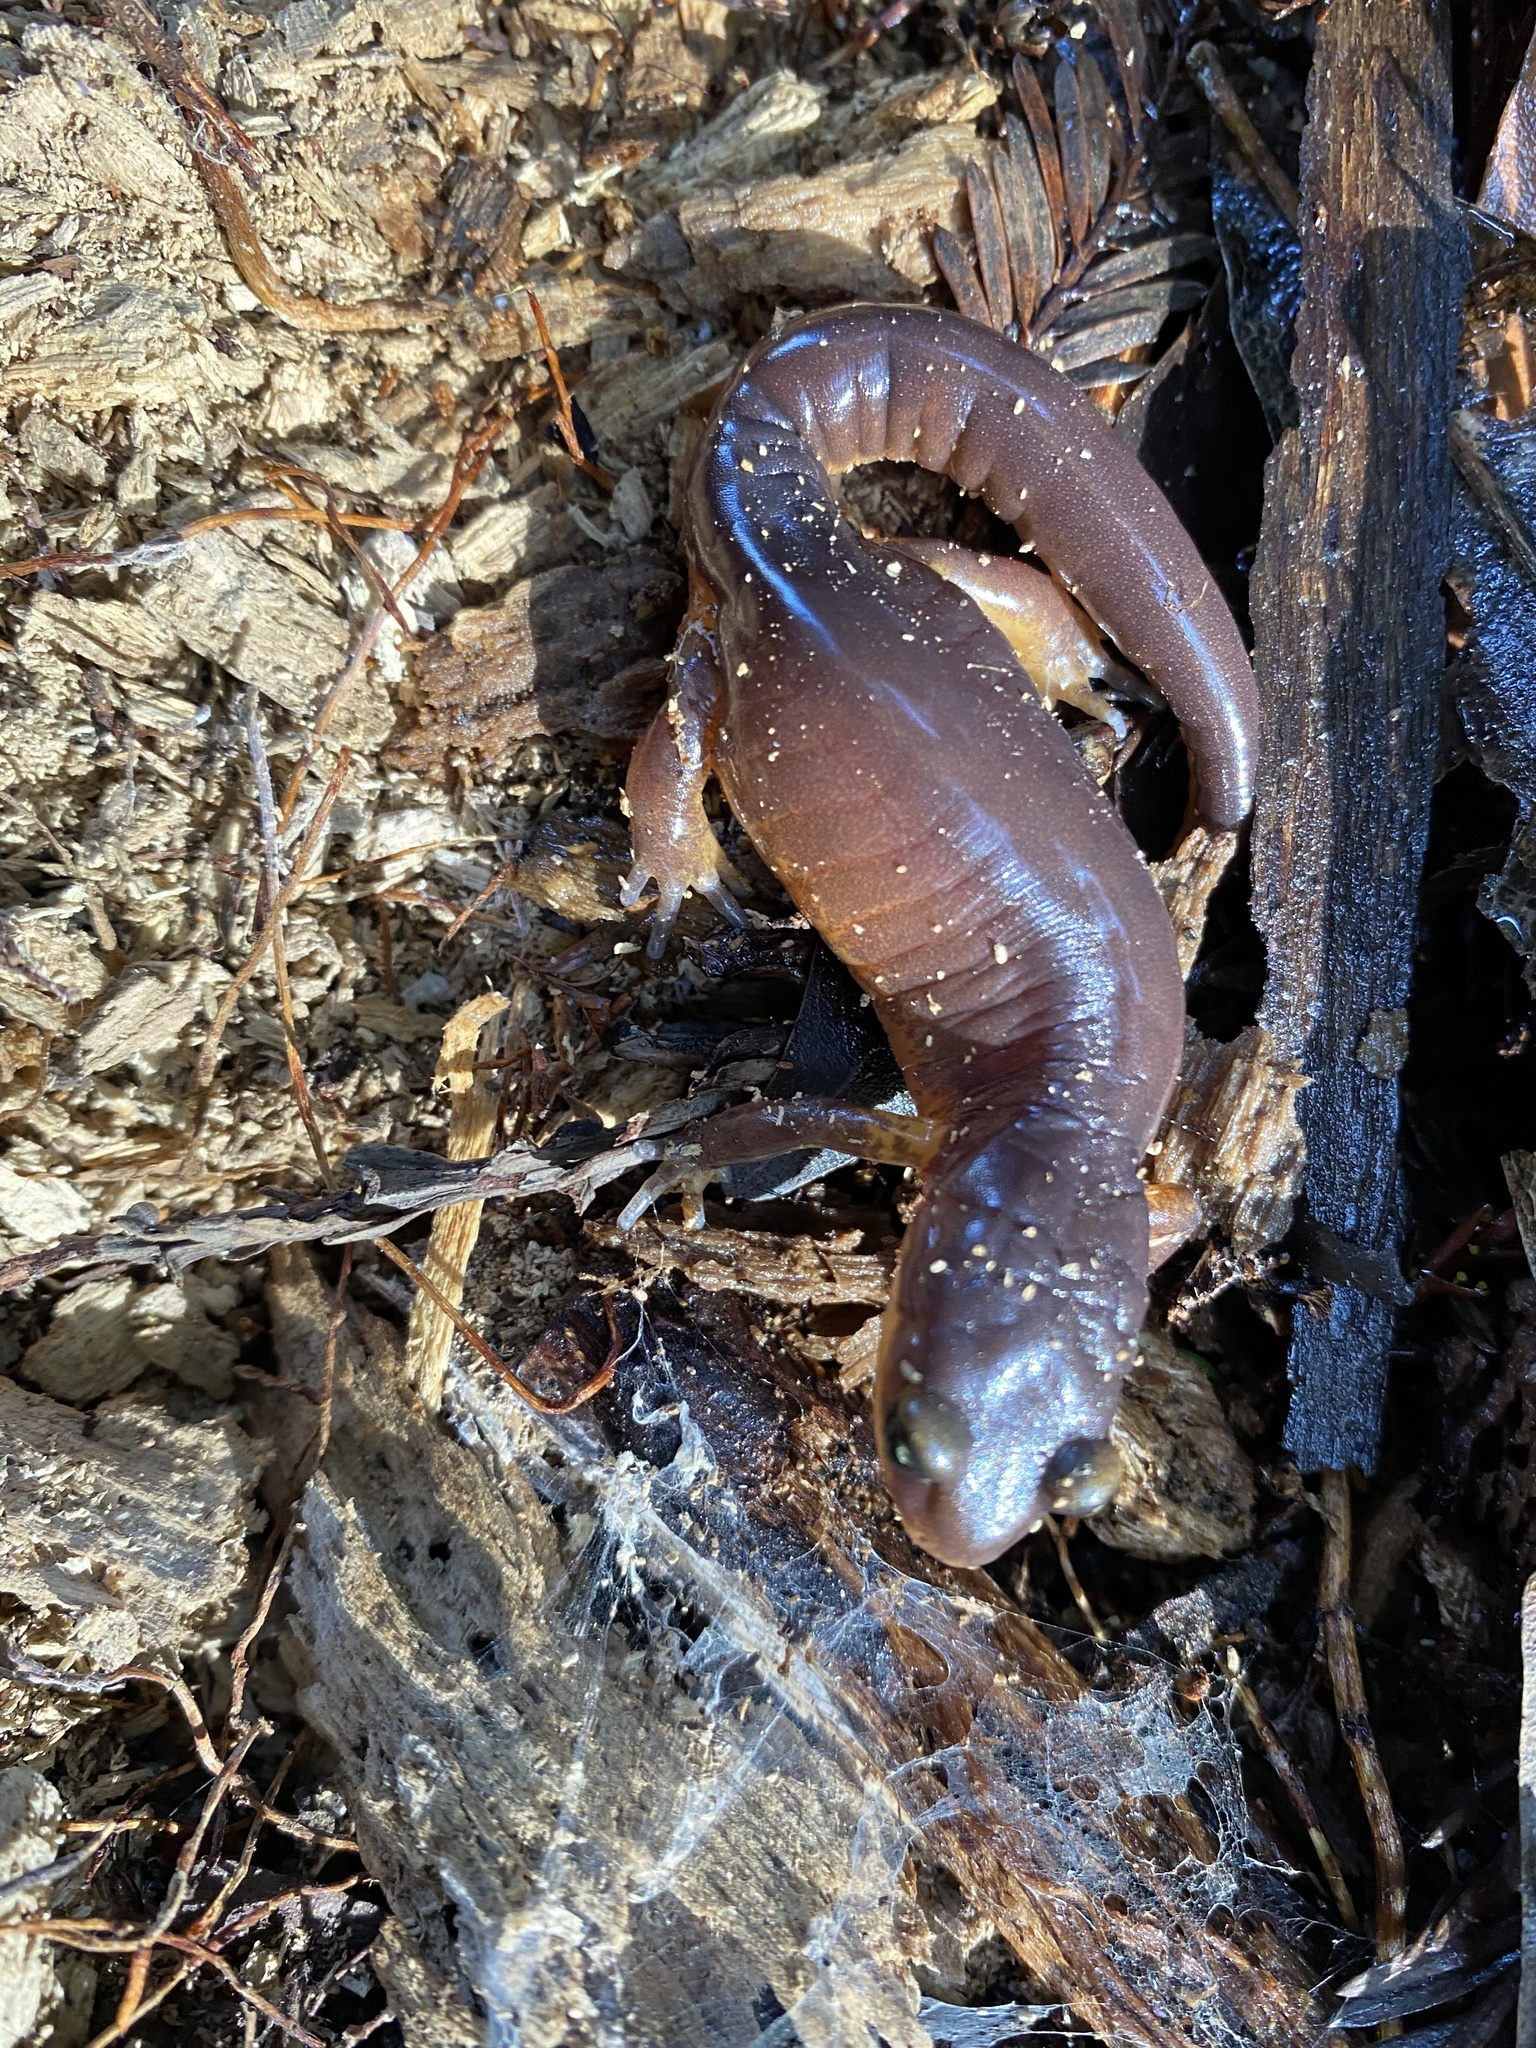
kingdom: Animalia
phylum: Chordata
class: Amphibia
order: Caudata
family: Plethodontidae
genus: Ensatina
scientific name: Ensatina eschscholtzii
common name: Ensatina
